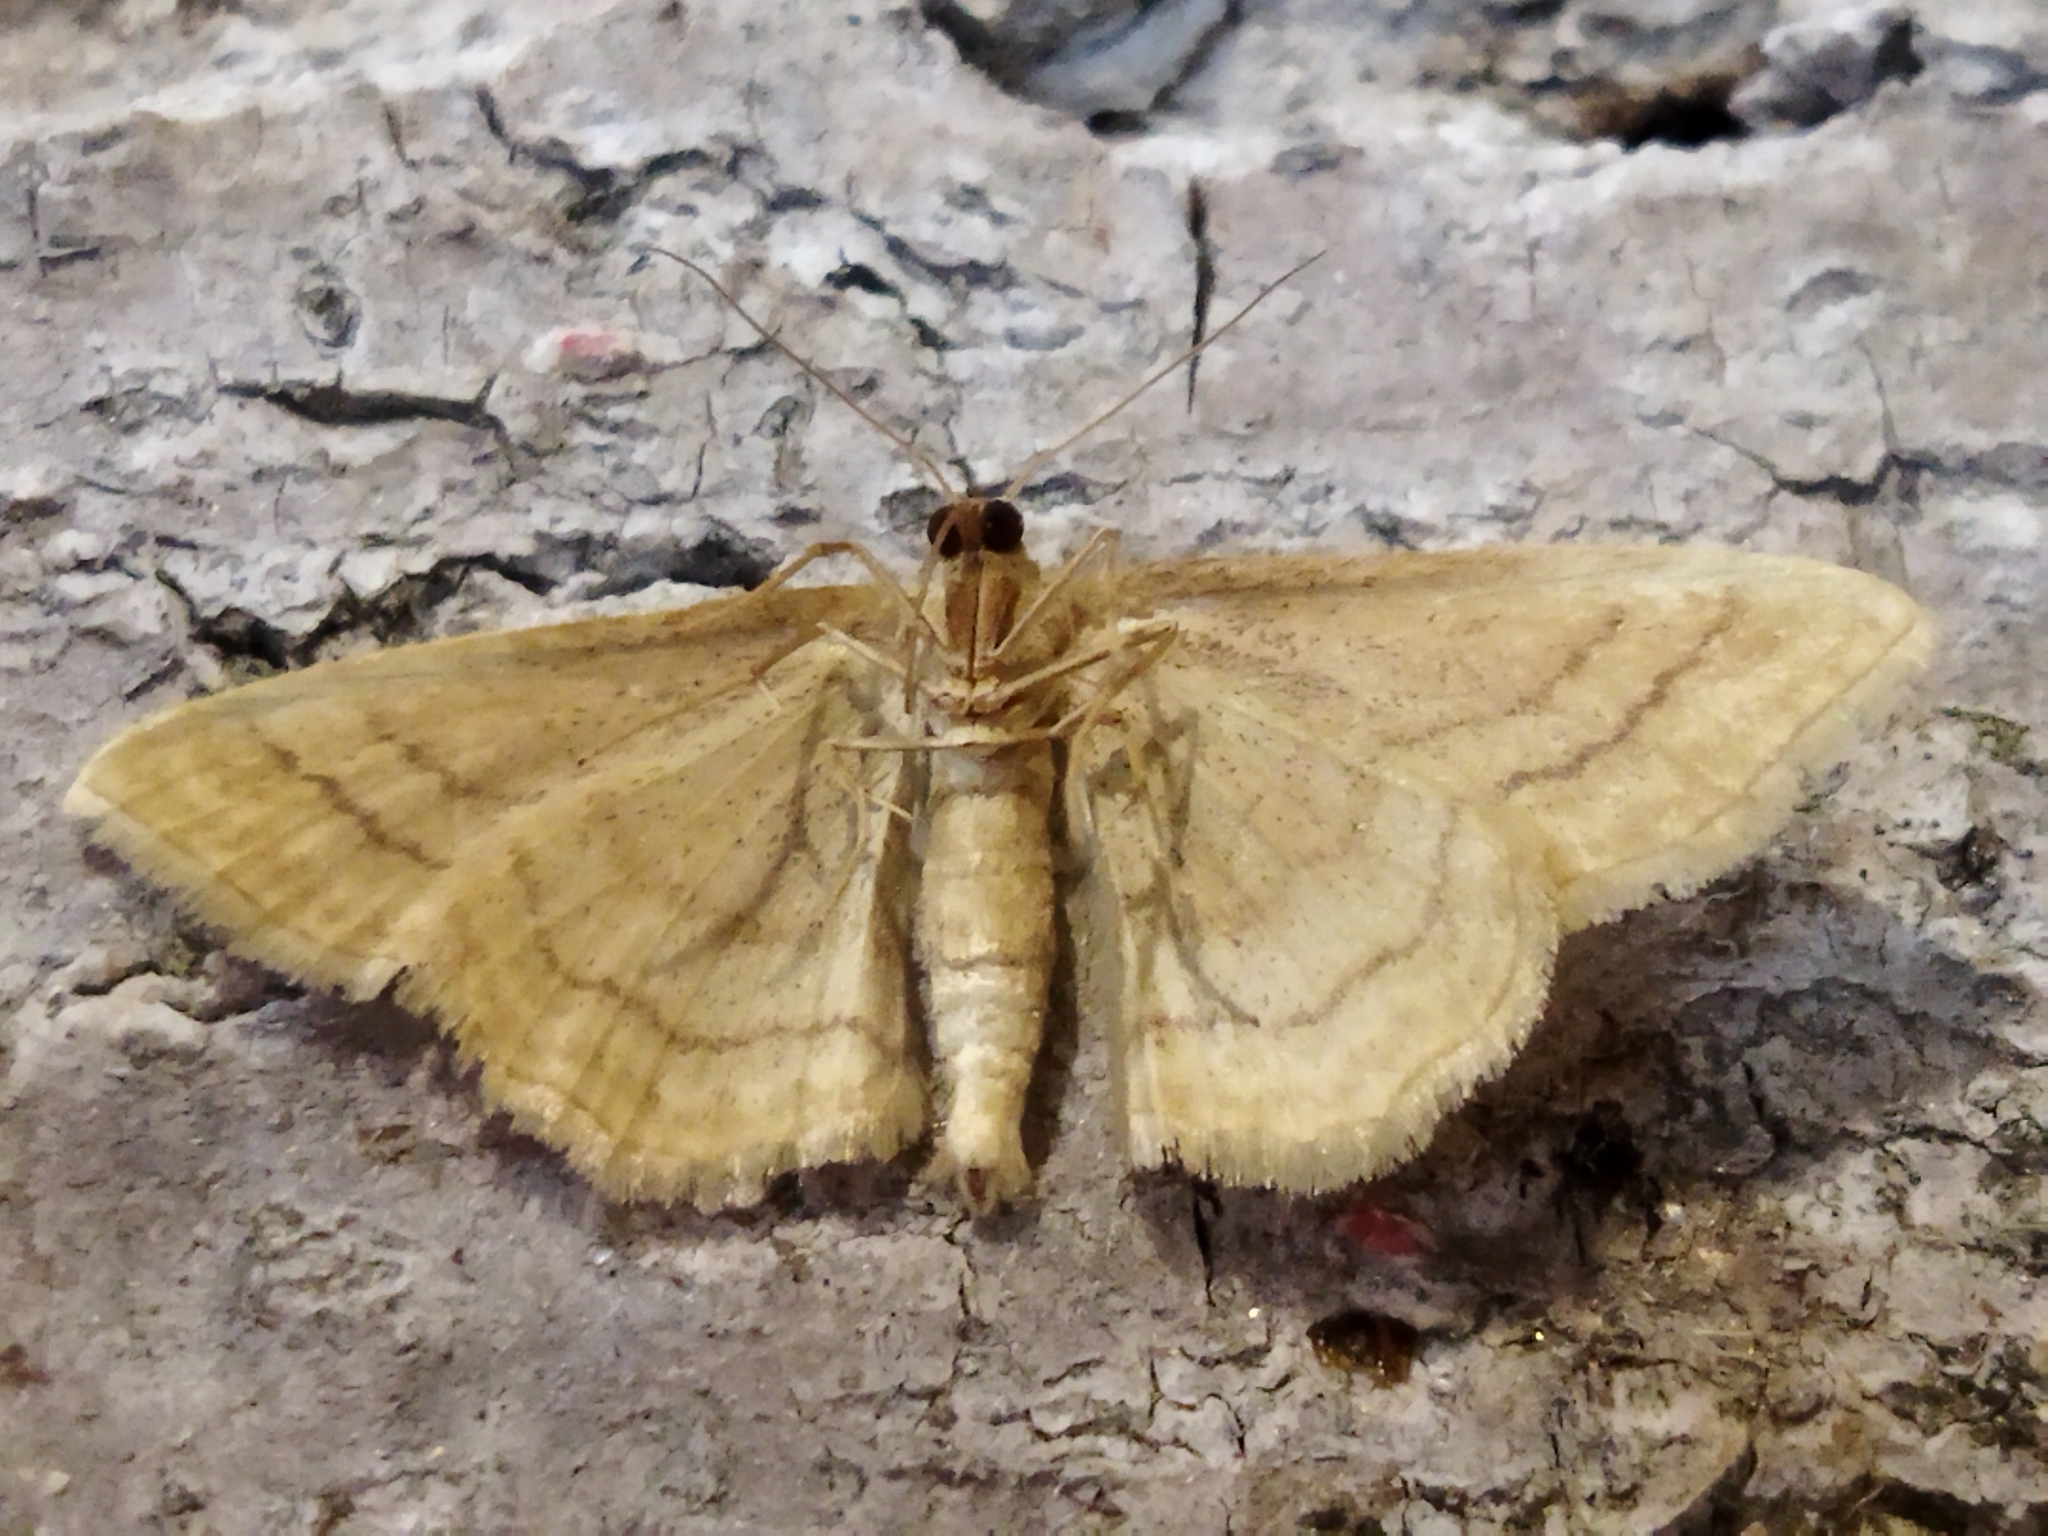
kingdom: Animalia
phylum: Arthropoda
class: Insecta
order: Lepidoptera
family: Geometridae
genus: Idaea
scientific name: Idaea rufaria
